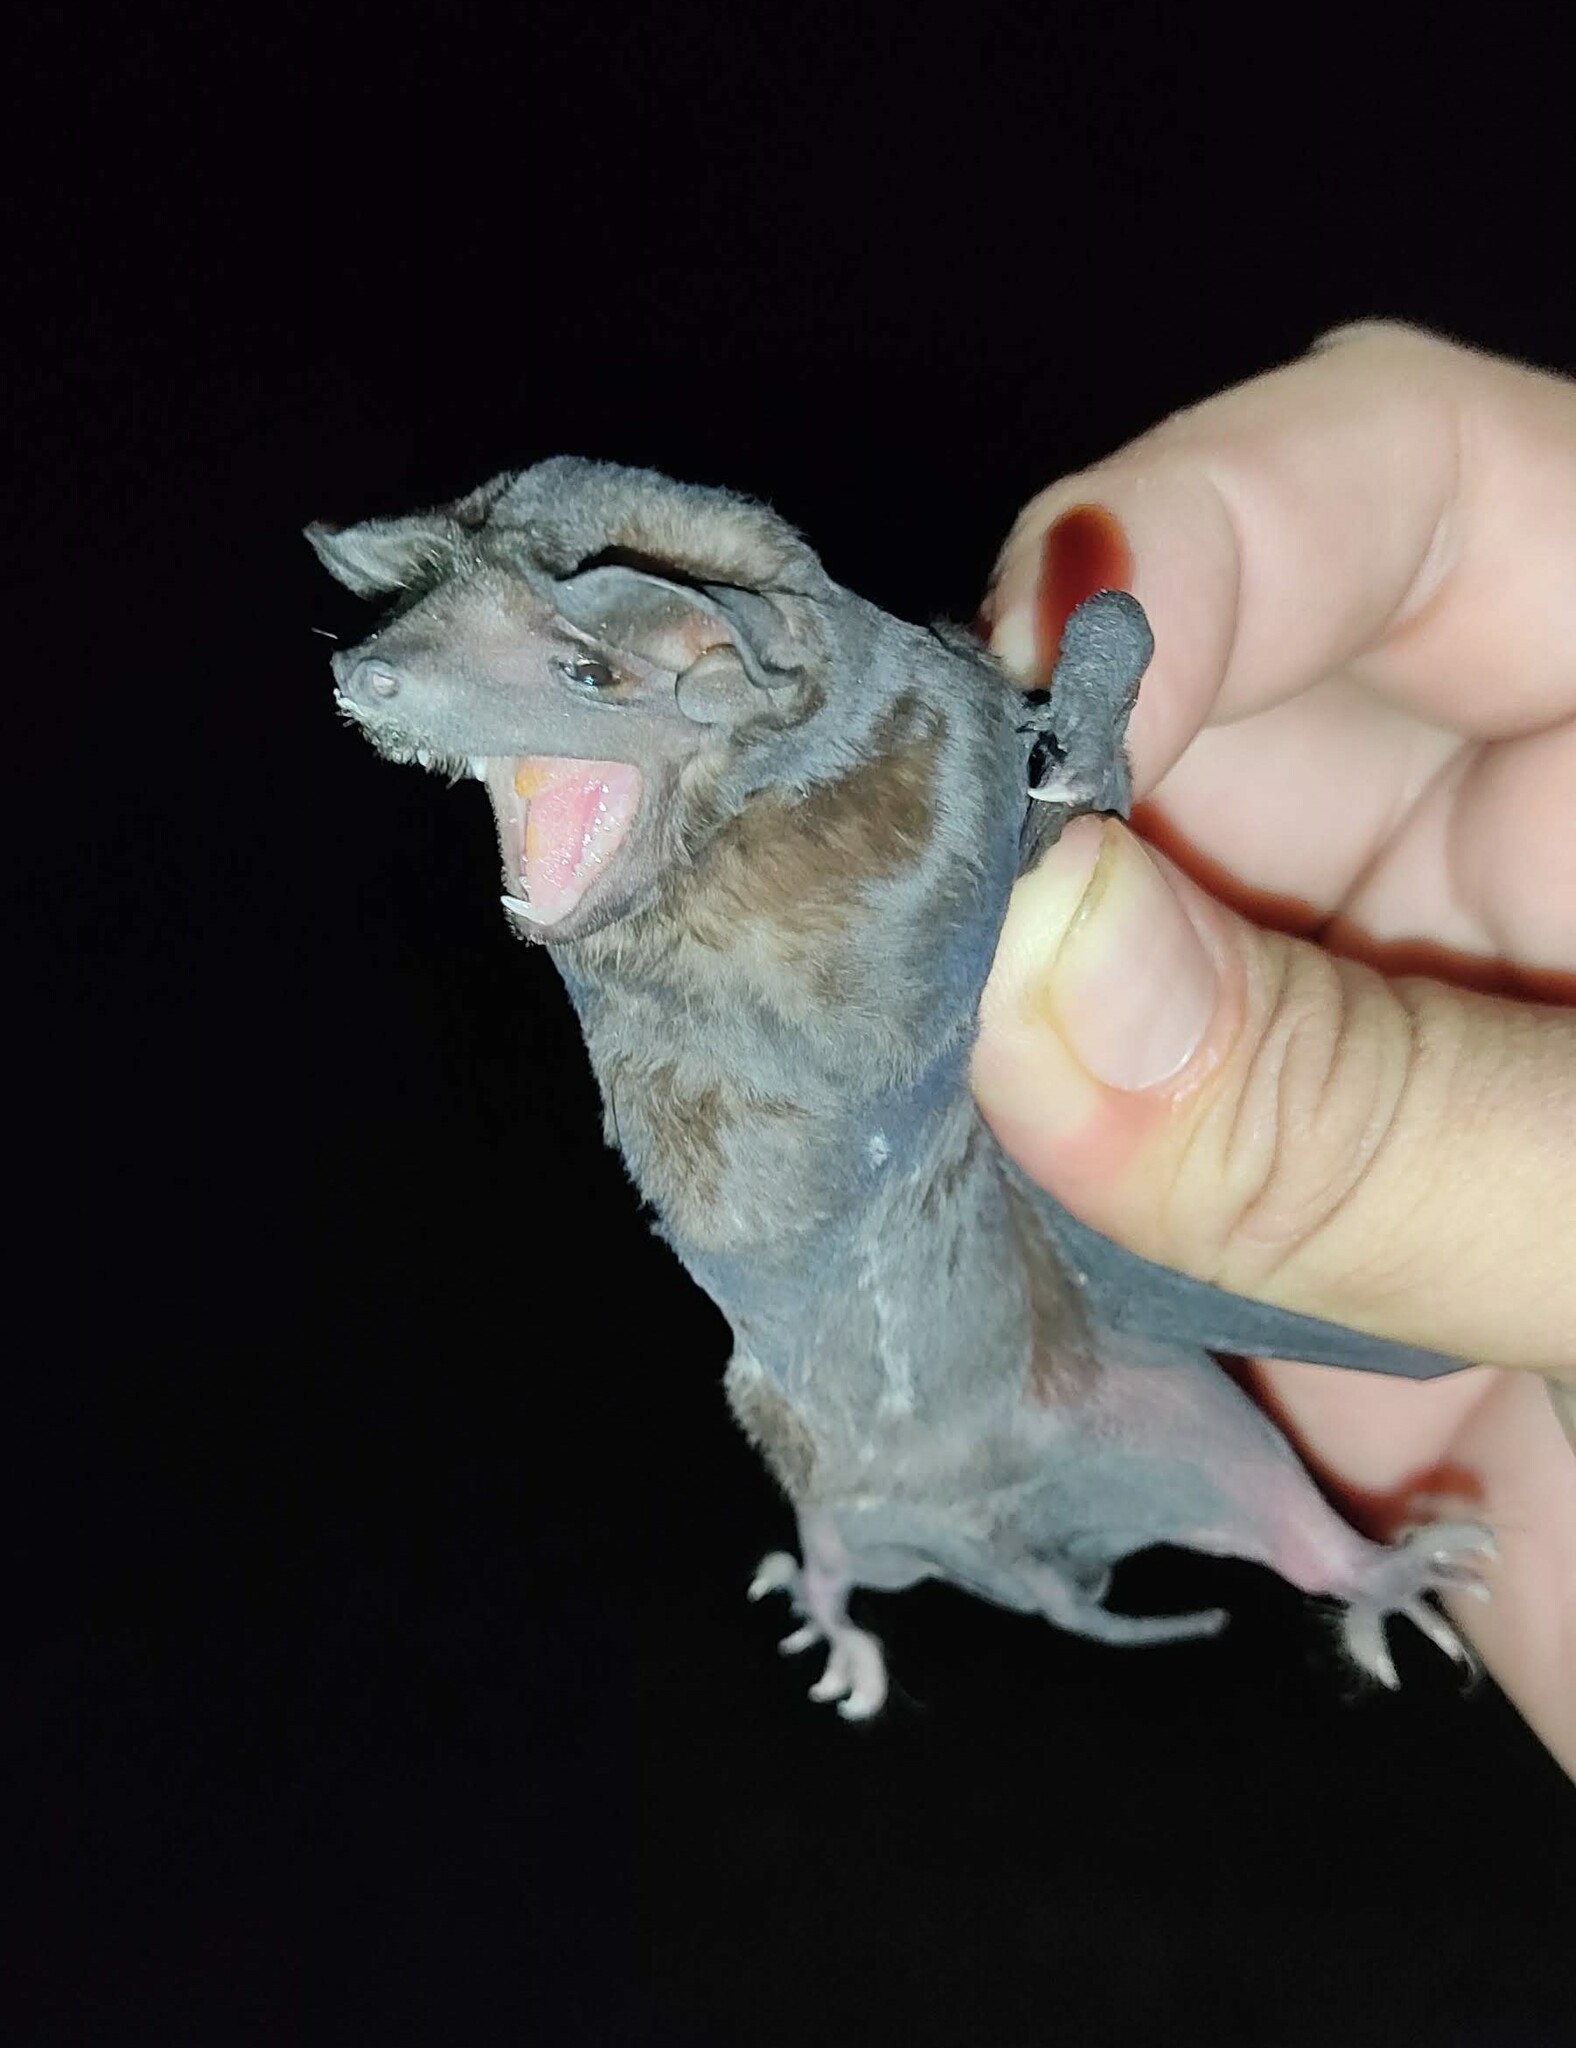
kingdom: Animalia
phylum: Chordata
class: Mammalia
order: Chiroptera
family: Molossidae
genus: Molossus
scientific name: Molossus nigricans
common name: Northern black mastiff bat
